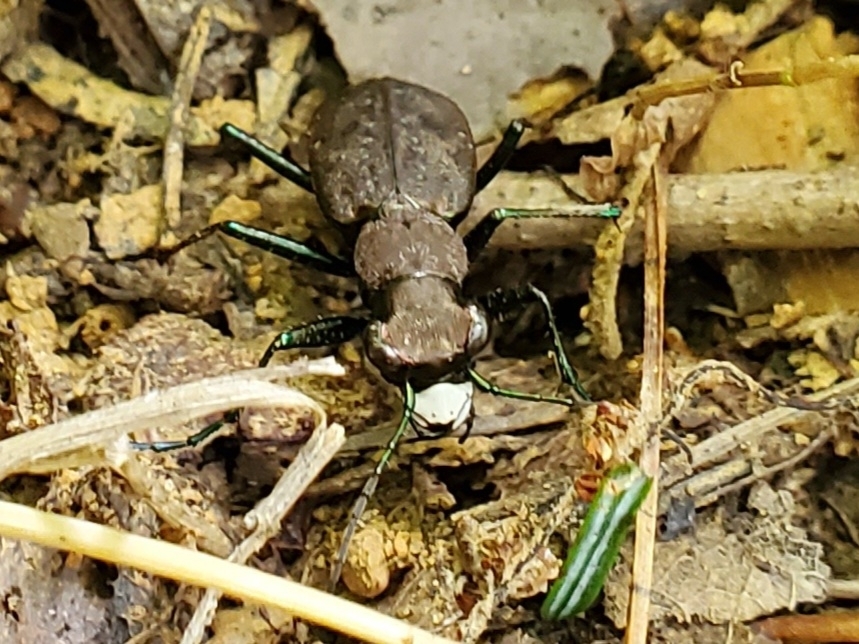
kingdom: Animalia
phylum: Arthropoda
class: Insecta
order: Coleoptera
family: Carabidae
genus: Cylindera
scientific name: Cylindera unipunctata
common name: One-spotted tiger beetle
